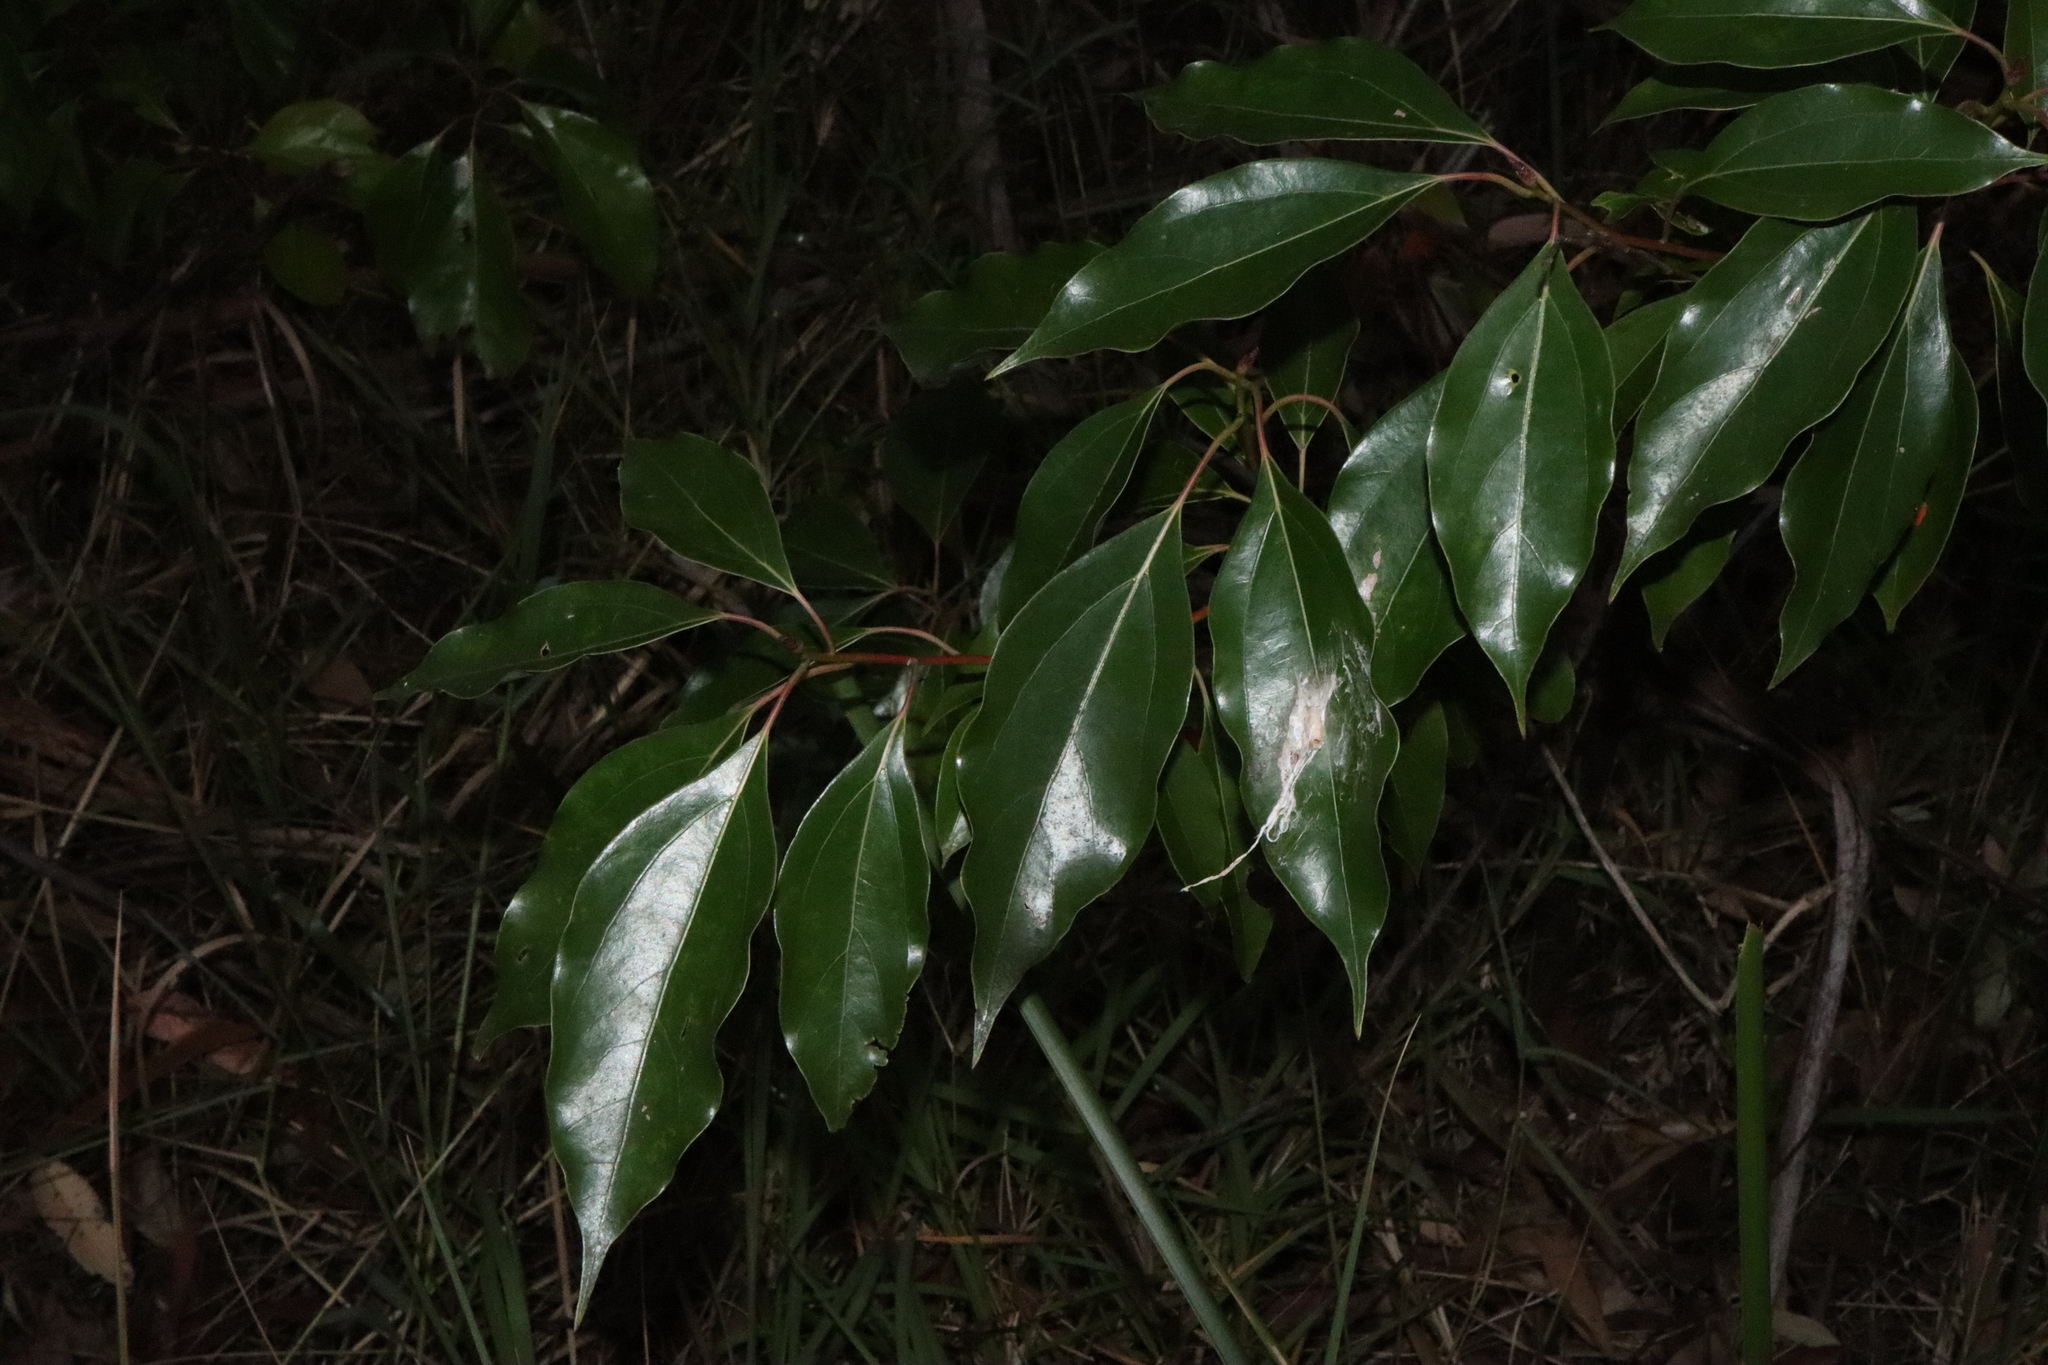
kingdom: Plantae
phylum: Tracheophyta
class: Magnoliopsida
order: Laurales
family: Lauraceae
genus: Cinnamomum
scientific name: Cinnamomum camphora
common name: Camphortree
